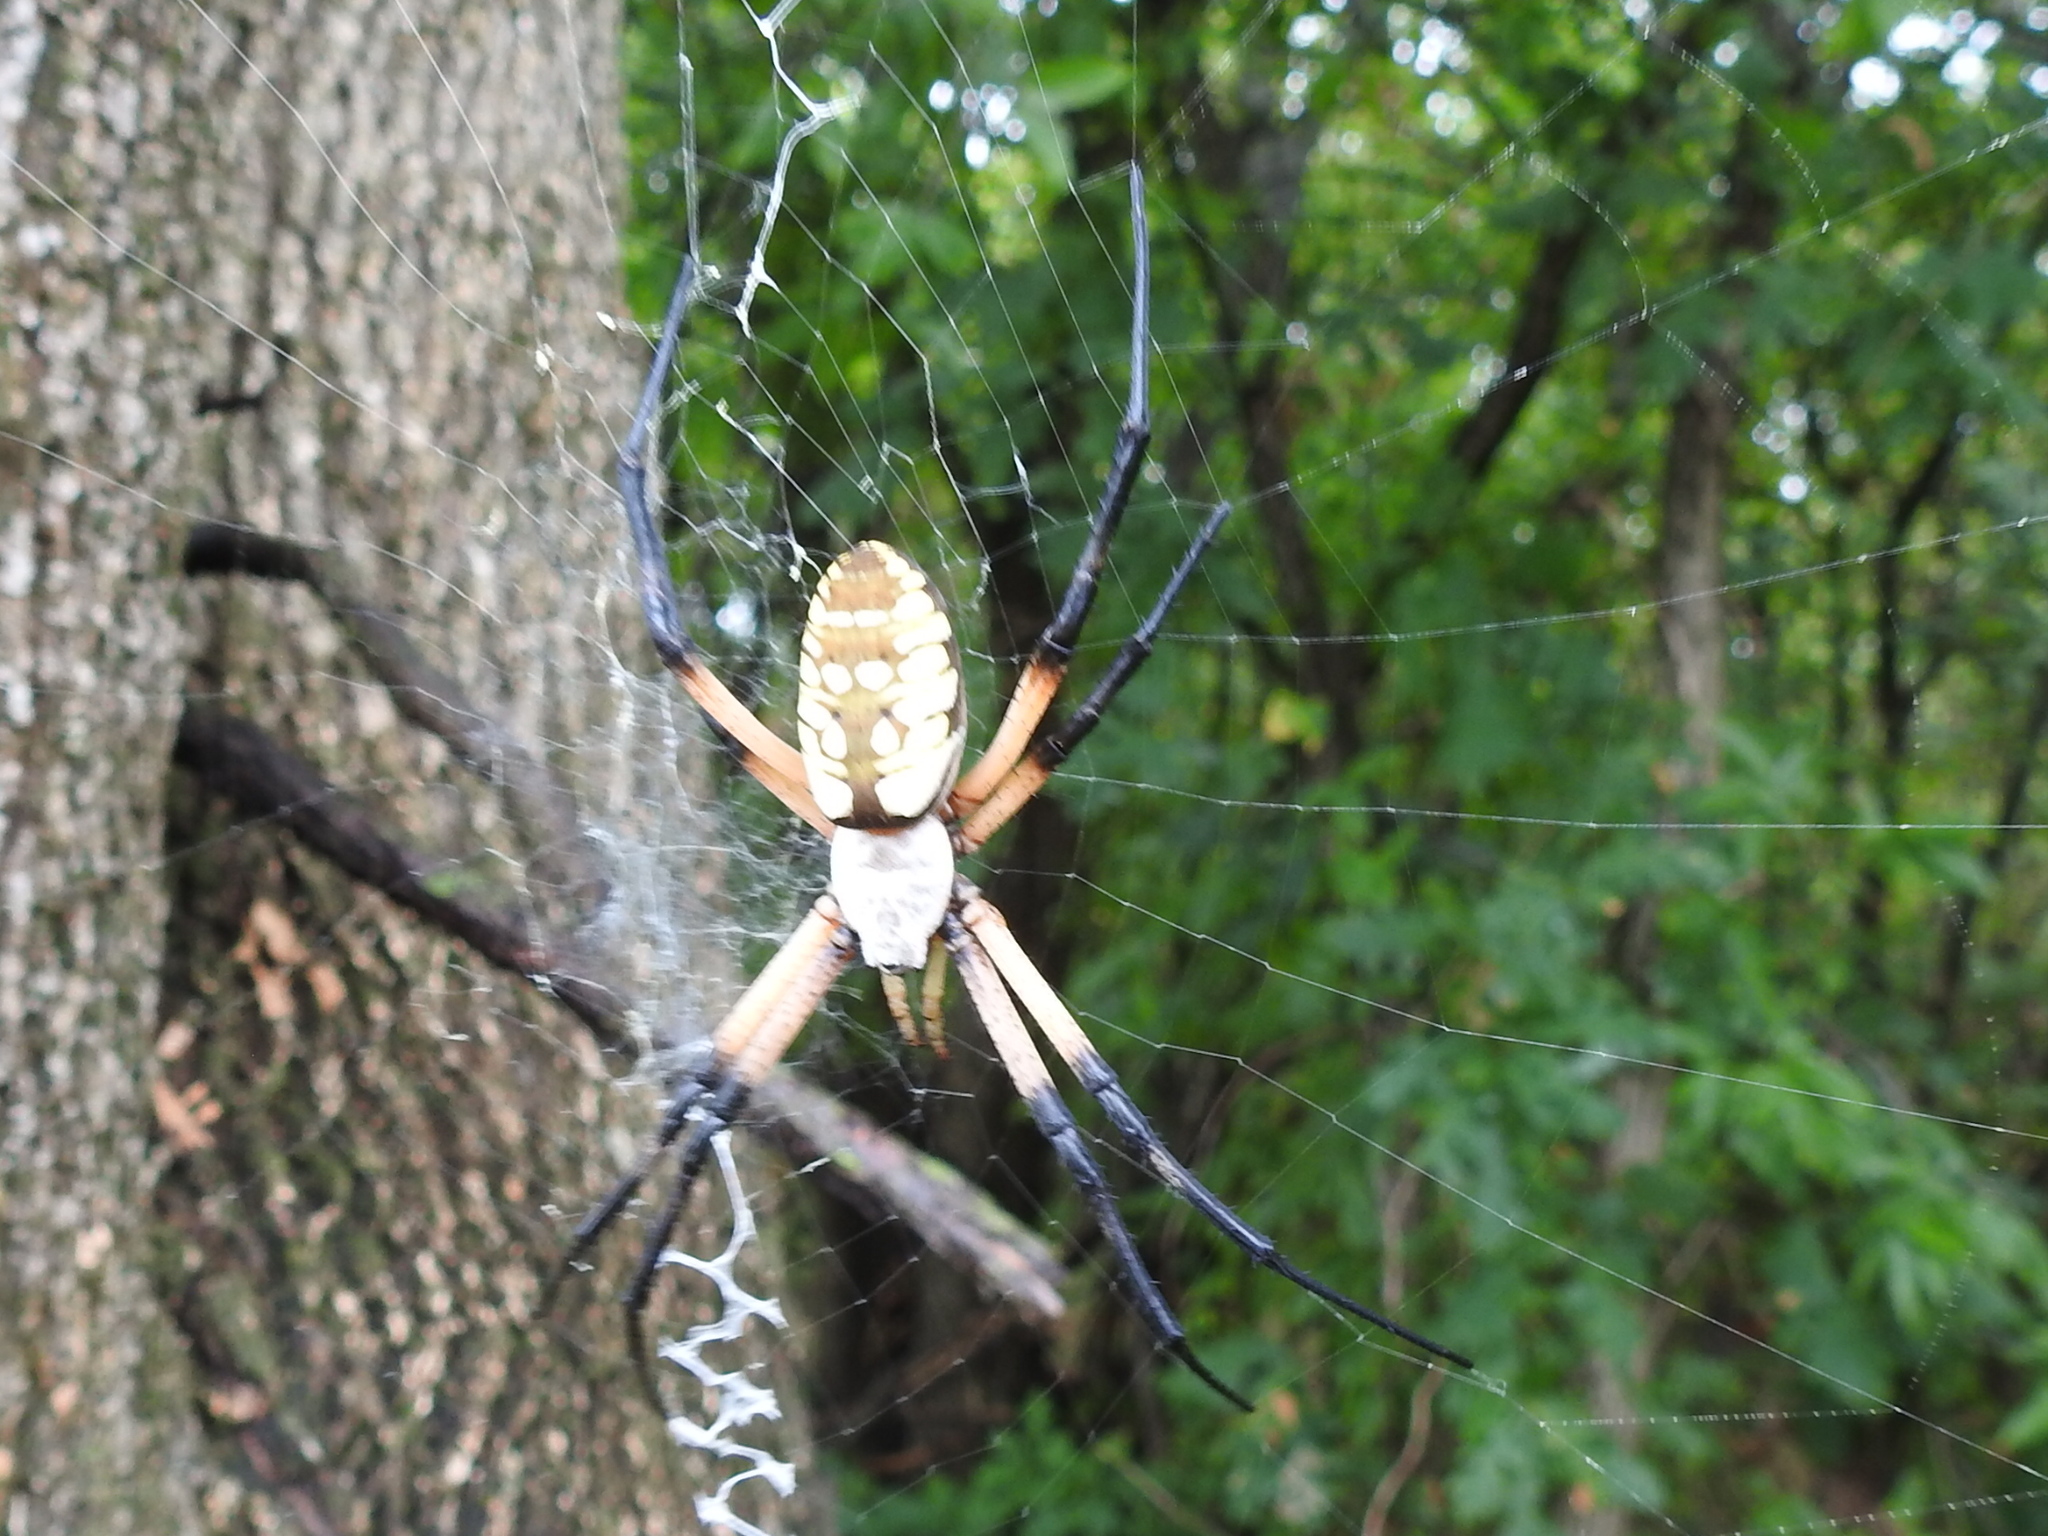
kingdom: Animalia
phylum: Arthropoda
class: Arachnida
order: Araneae
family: Araneidae
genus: Argiope
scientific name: Argiope aurantia
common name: Orb weavers
